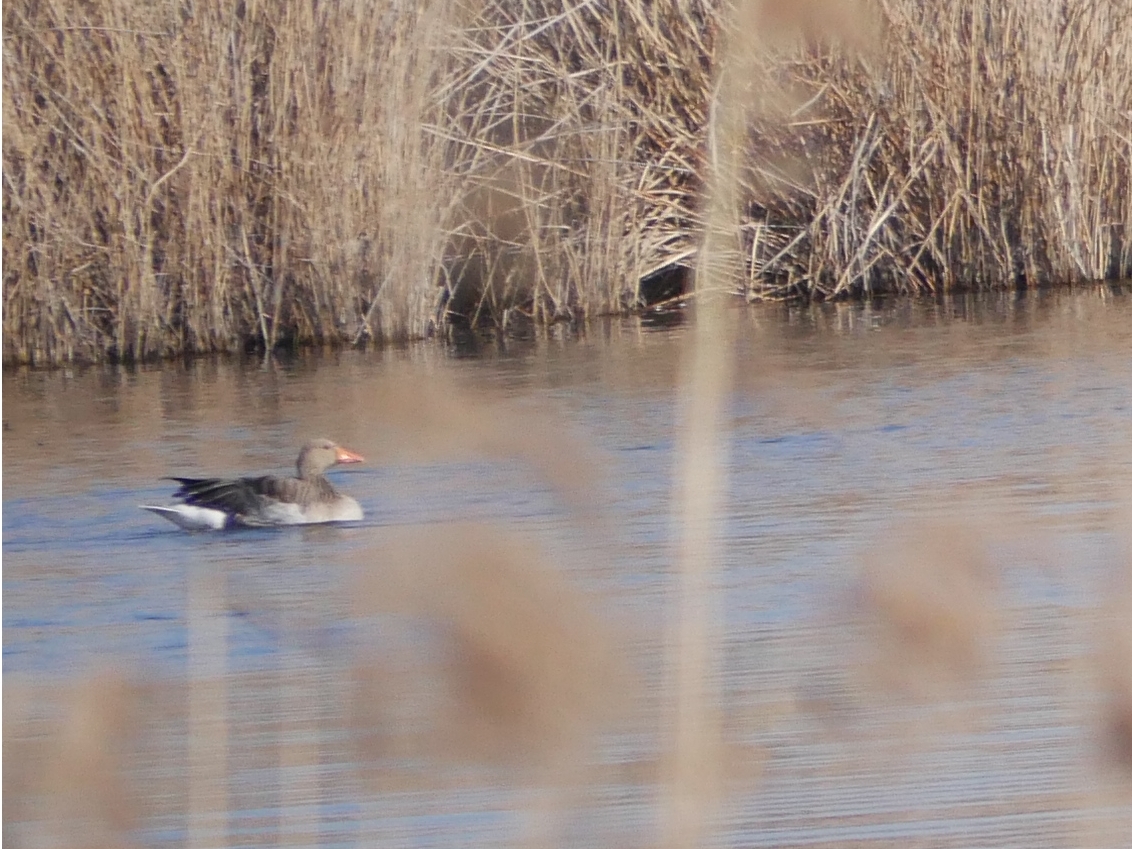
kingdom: Animalia
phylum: Chordata
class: Aves
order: Anseriformes
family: Anatidae
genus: Anser
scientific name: Anser anser
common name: Greylag goose
